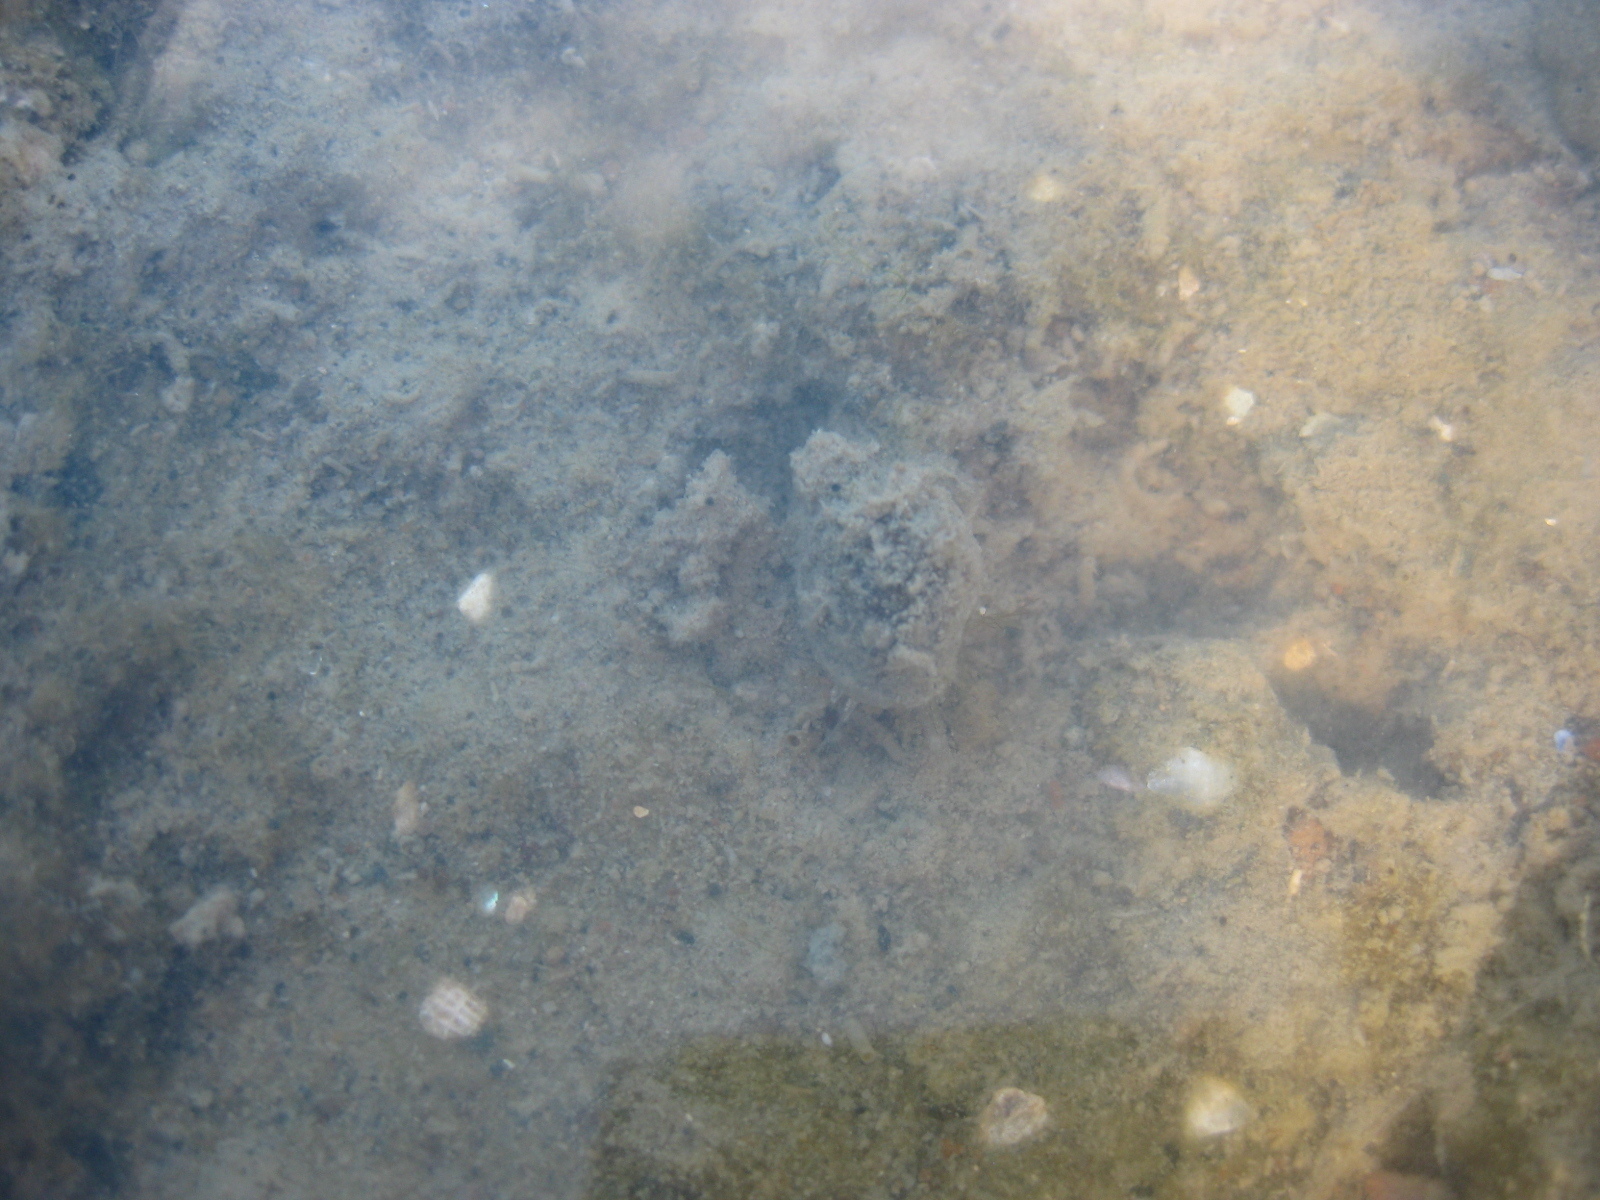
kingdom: Animalia
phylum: Mollusca
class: Gastropoda
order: Neogastropoda
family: Nassariidae
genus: Tritia
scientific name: Tritia burchardi
